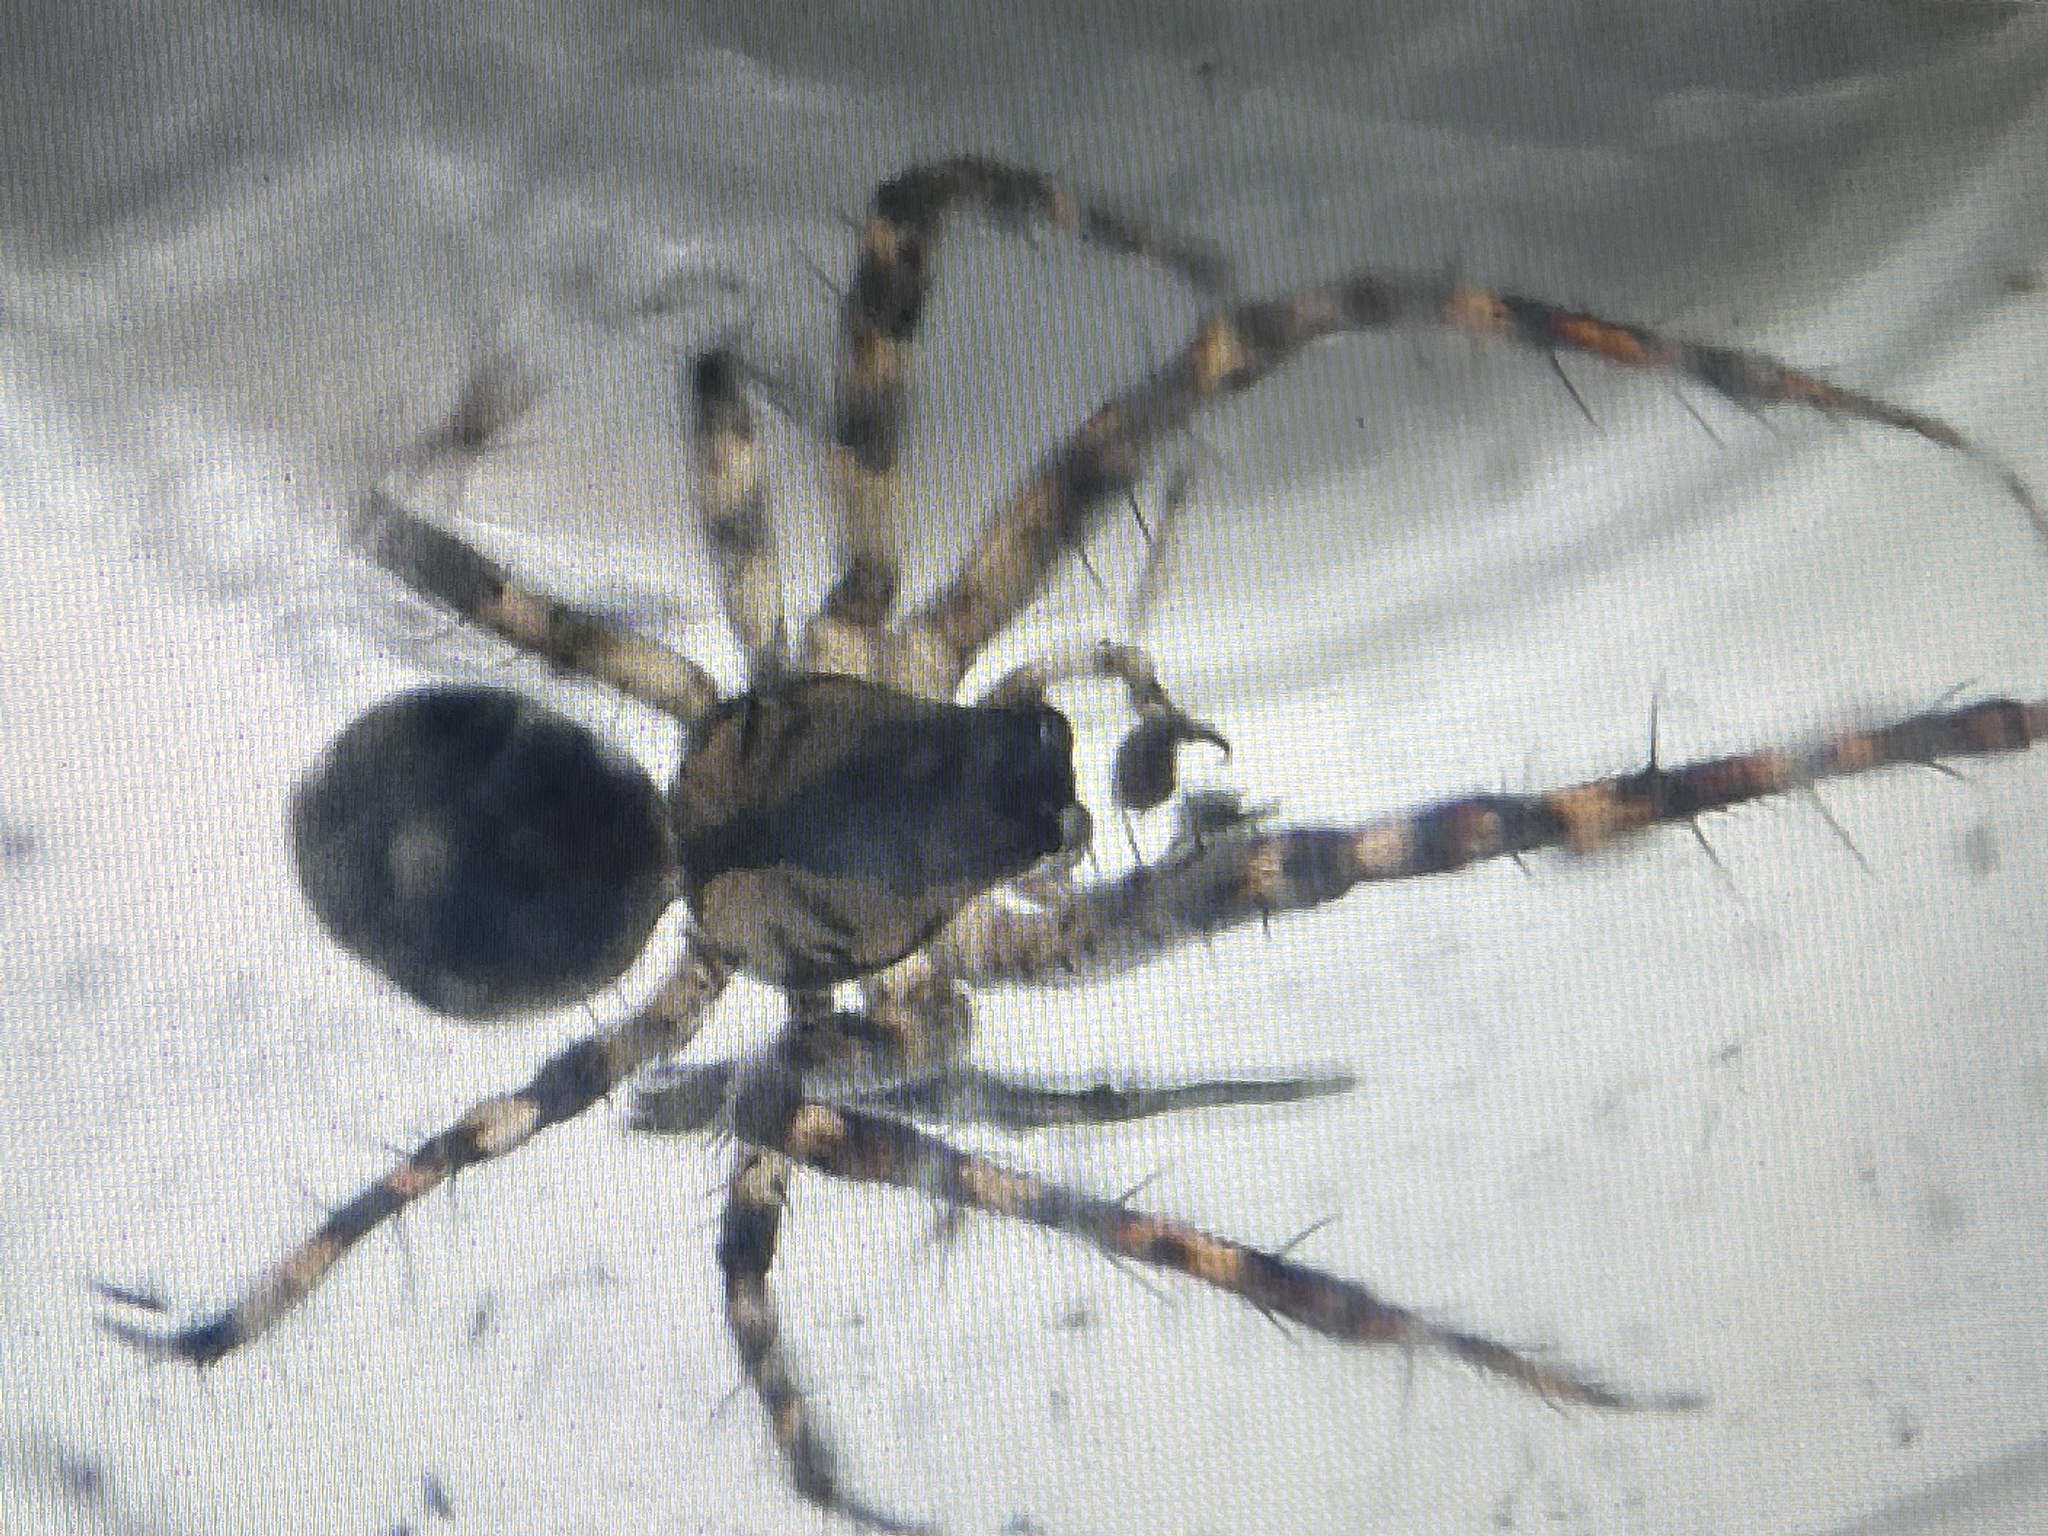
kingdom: Animalia
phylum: Arthropoda
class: Arachnida
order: Araneae
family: Tetragnathidae
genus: Metellina
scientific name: Metellina merianae
